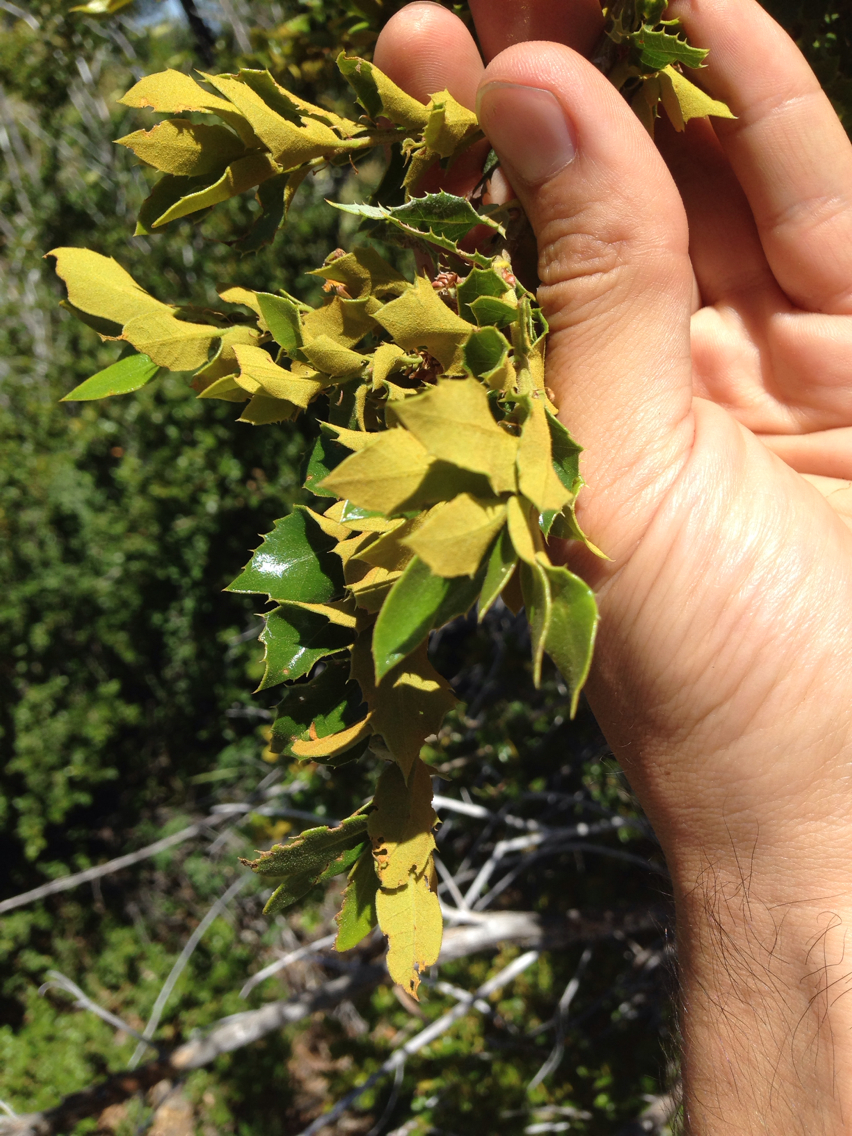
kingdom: Plantae
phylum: Tracheophyta
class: Magnoliopsida
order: Fagales
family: Fagaceae
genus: Quercus
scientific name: Quercus chrysolepis
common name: Canyon live oak
